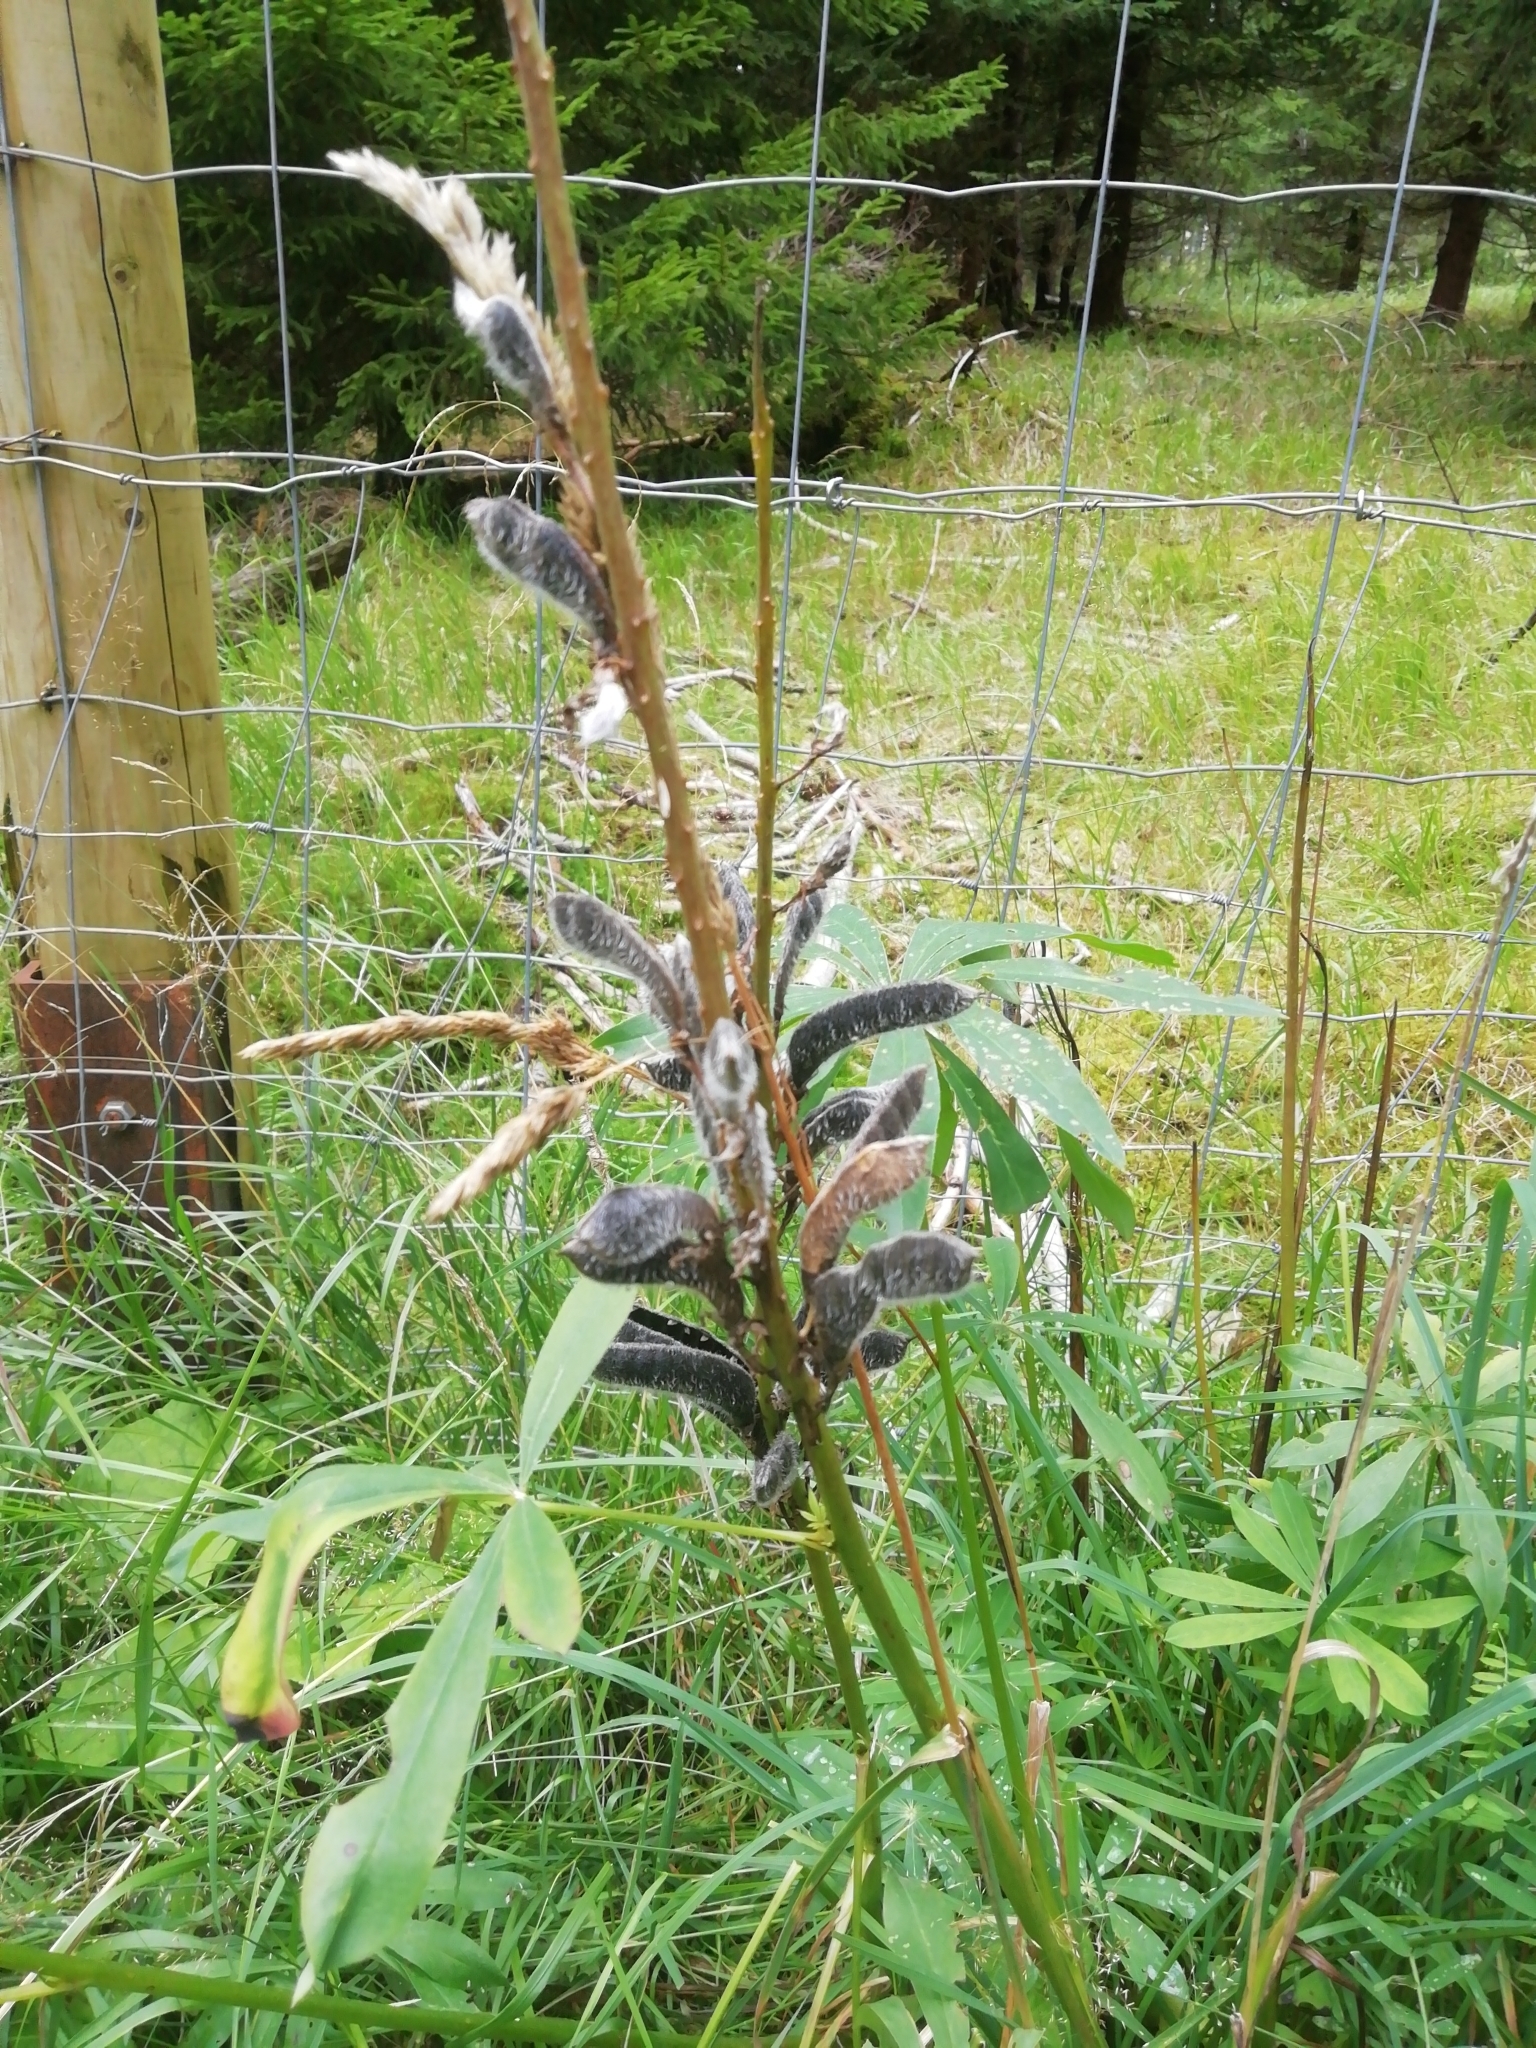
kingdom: Plantae
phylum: Tracheophyta
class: Magnoliopsida
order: Fabales
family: Fabaceae
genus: Lupinus
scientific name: Lupinus polyphyllus
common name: Garden lupin
